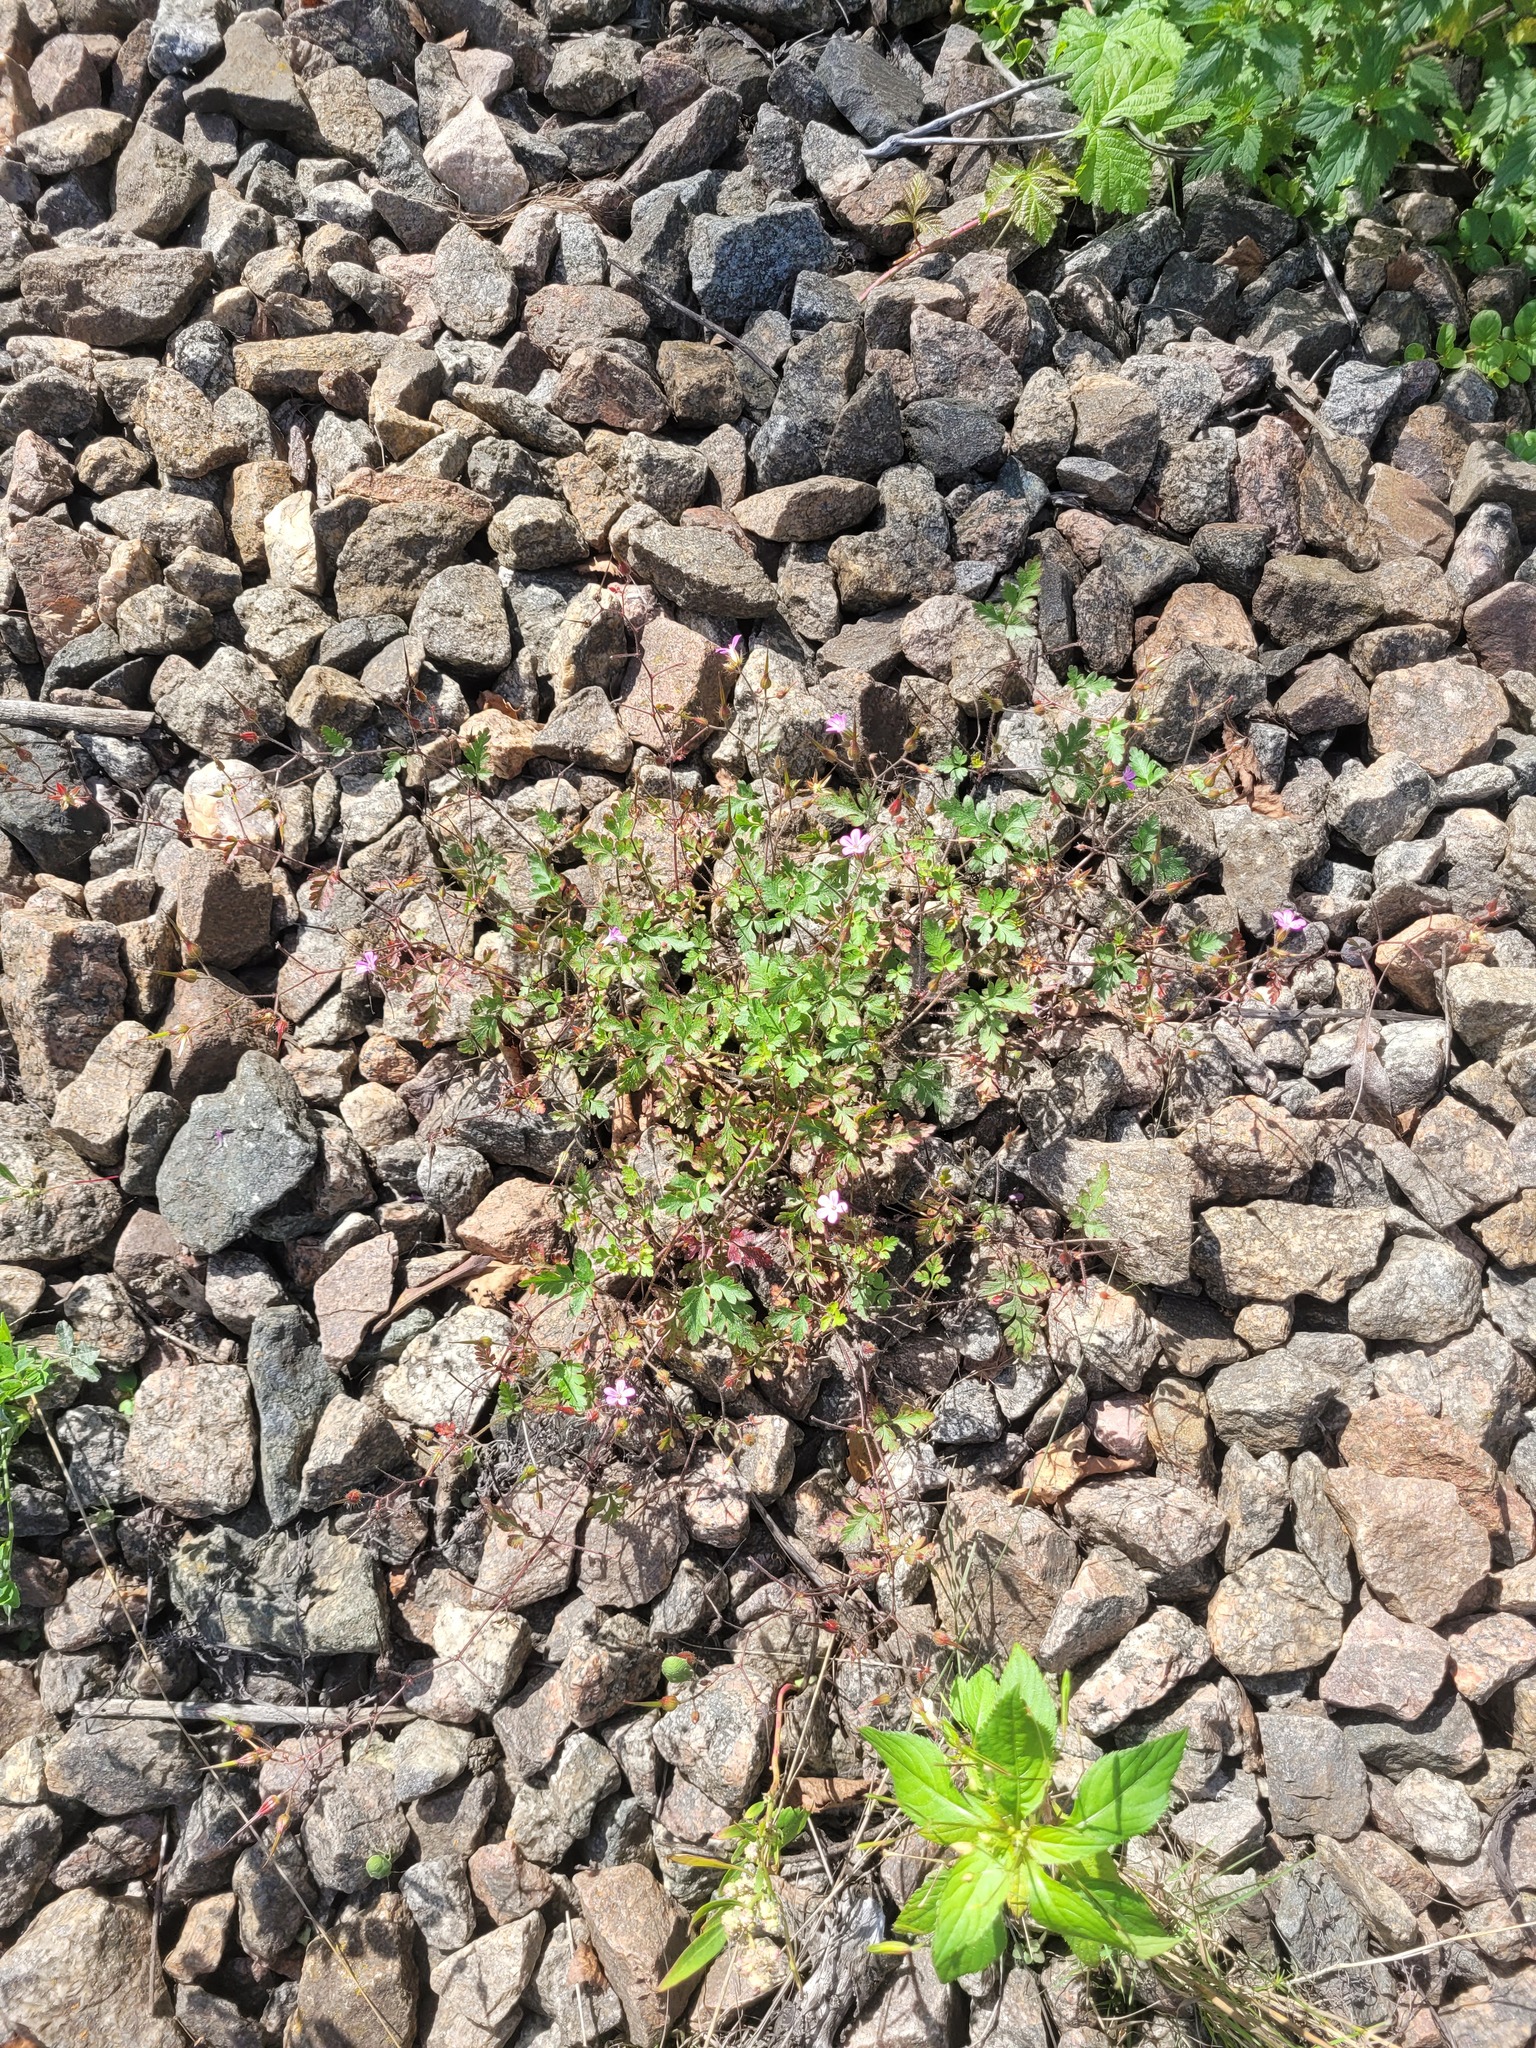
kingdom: Plantae
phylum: Tracheophyta
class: Magnoliopsida
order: Geraniales
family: Geraniaceae
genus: Geranium
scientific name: Geranium robertianum
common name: Herb-robert
